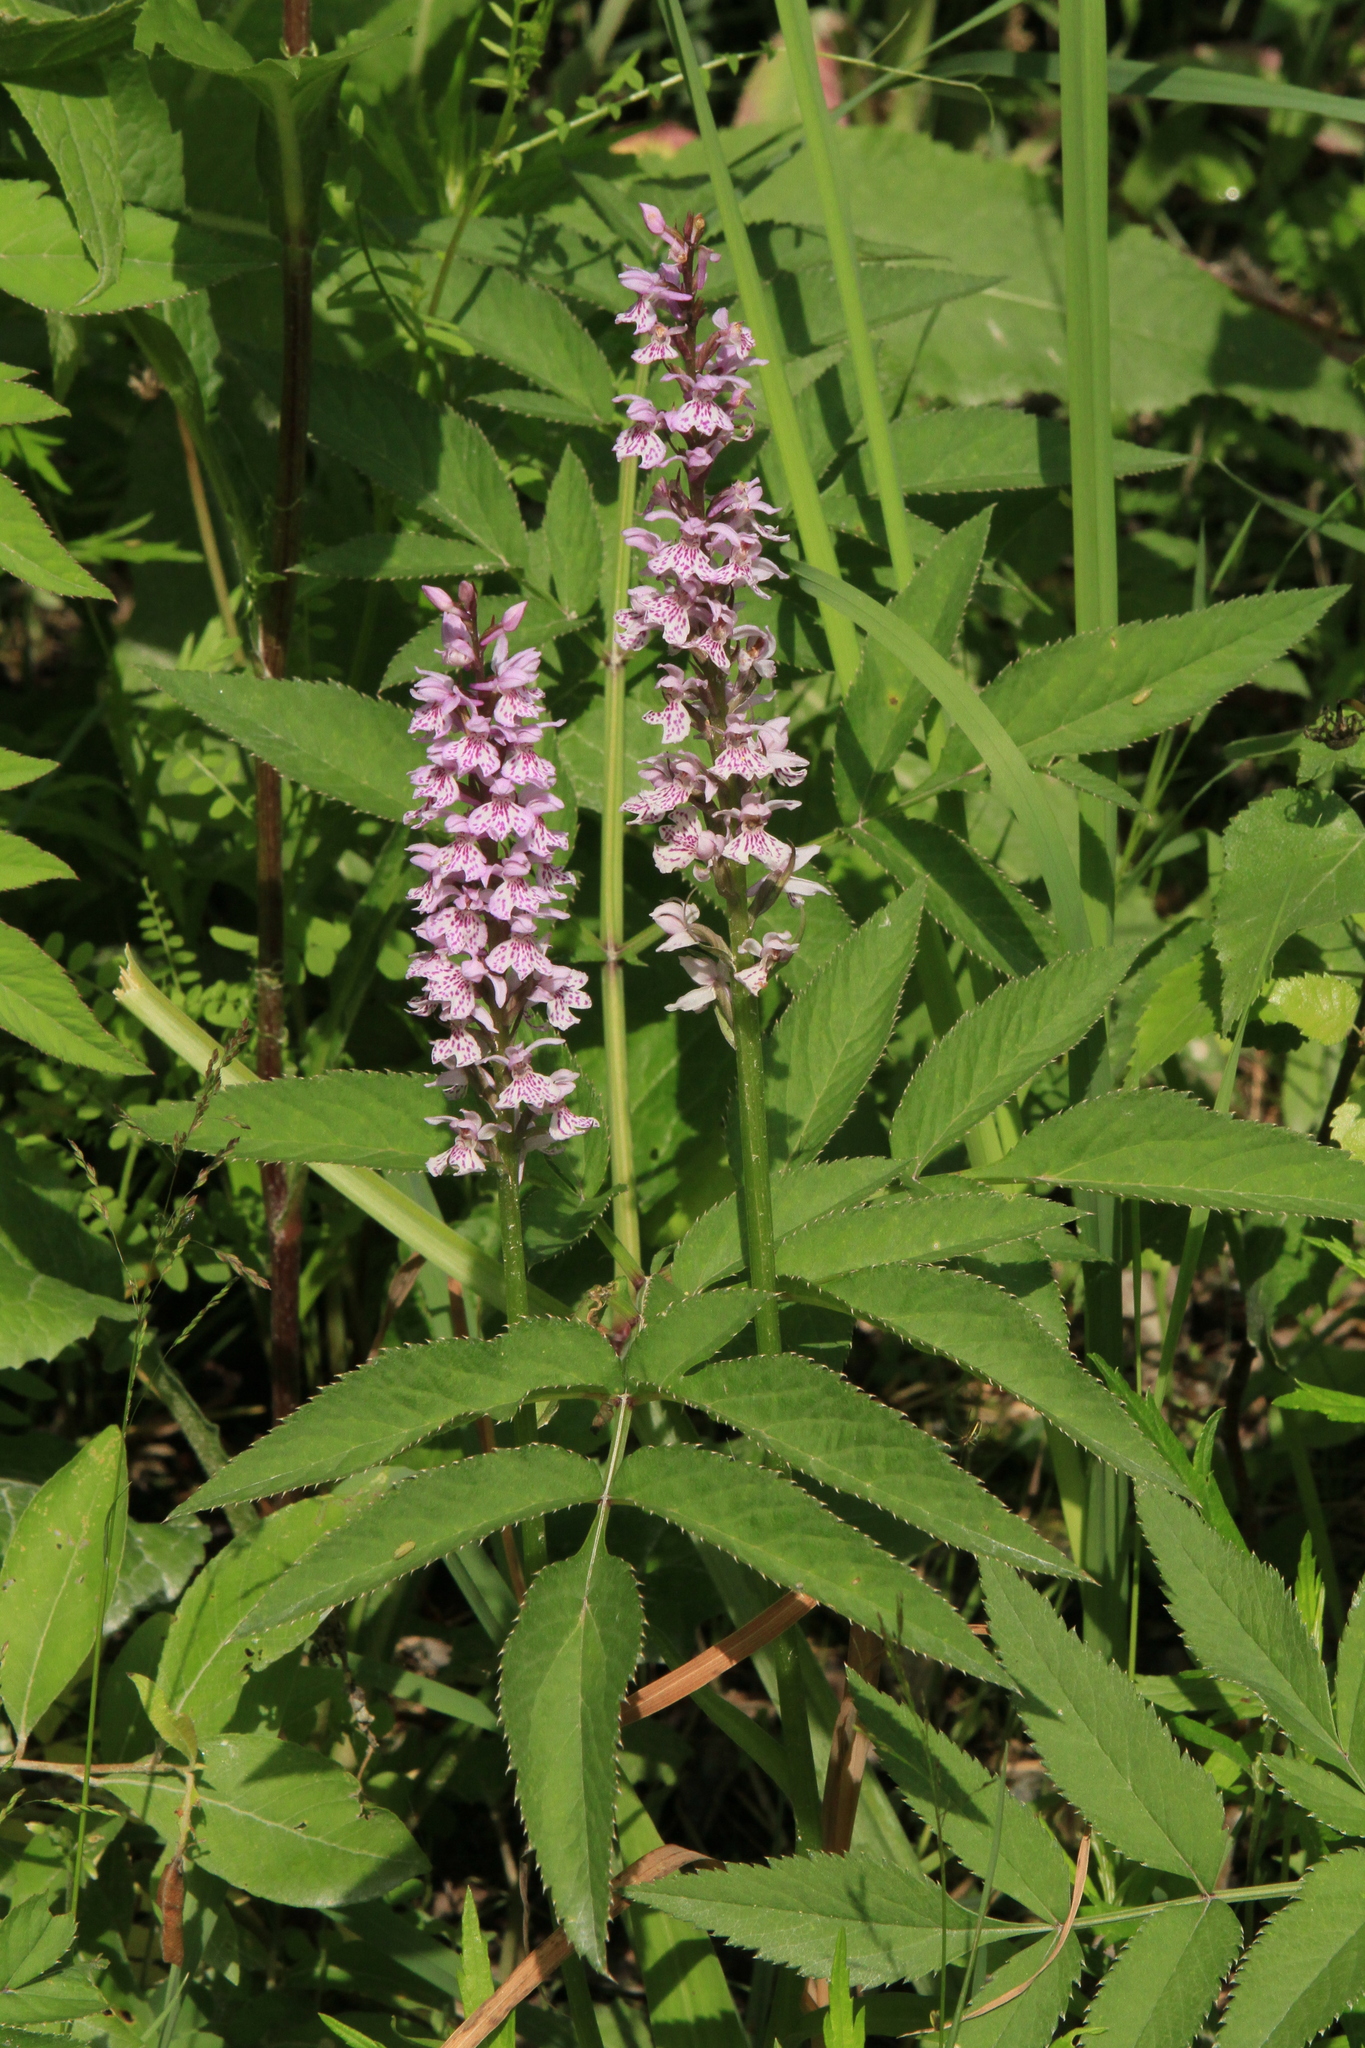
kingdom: Plantae
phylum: Tracheophyta
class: Liliopsida
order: Asparagales
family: Orchidaceae
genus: Dactylorhiza
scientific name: Dactylorhiza maculata
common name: Heath spotted-orchid
